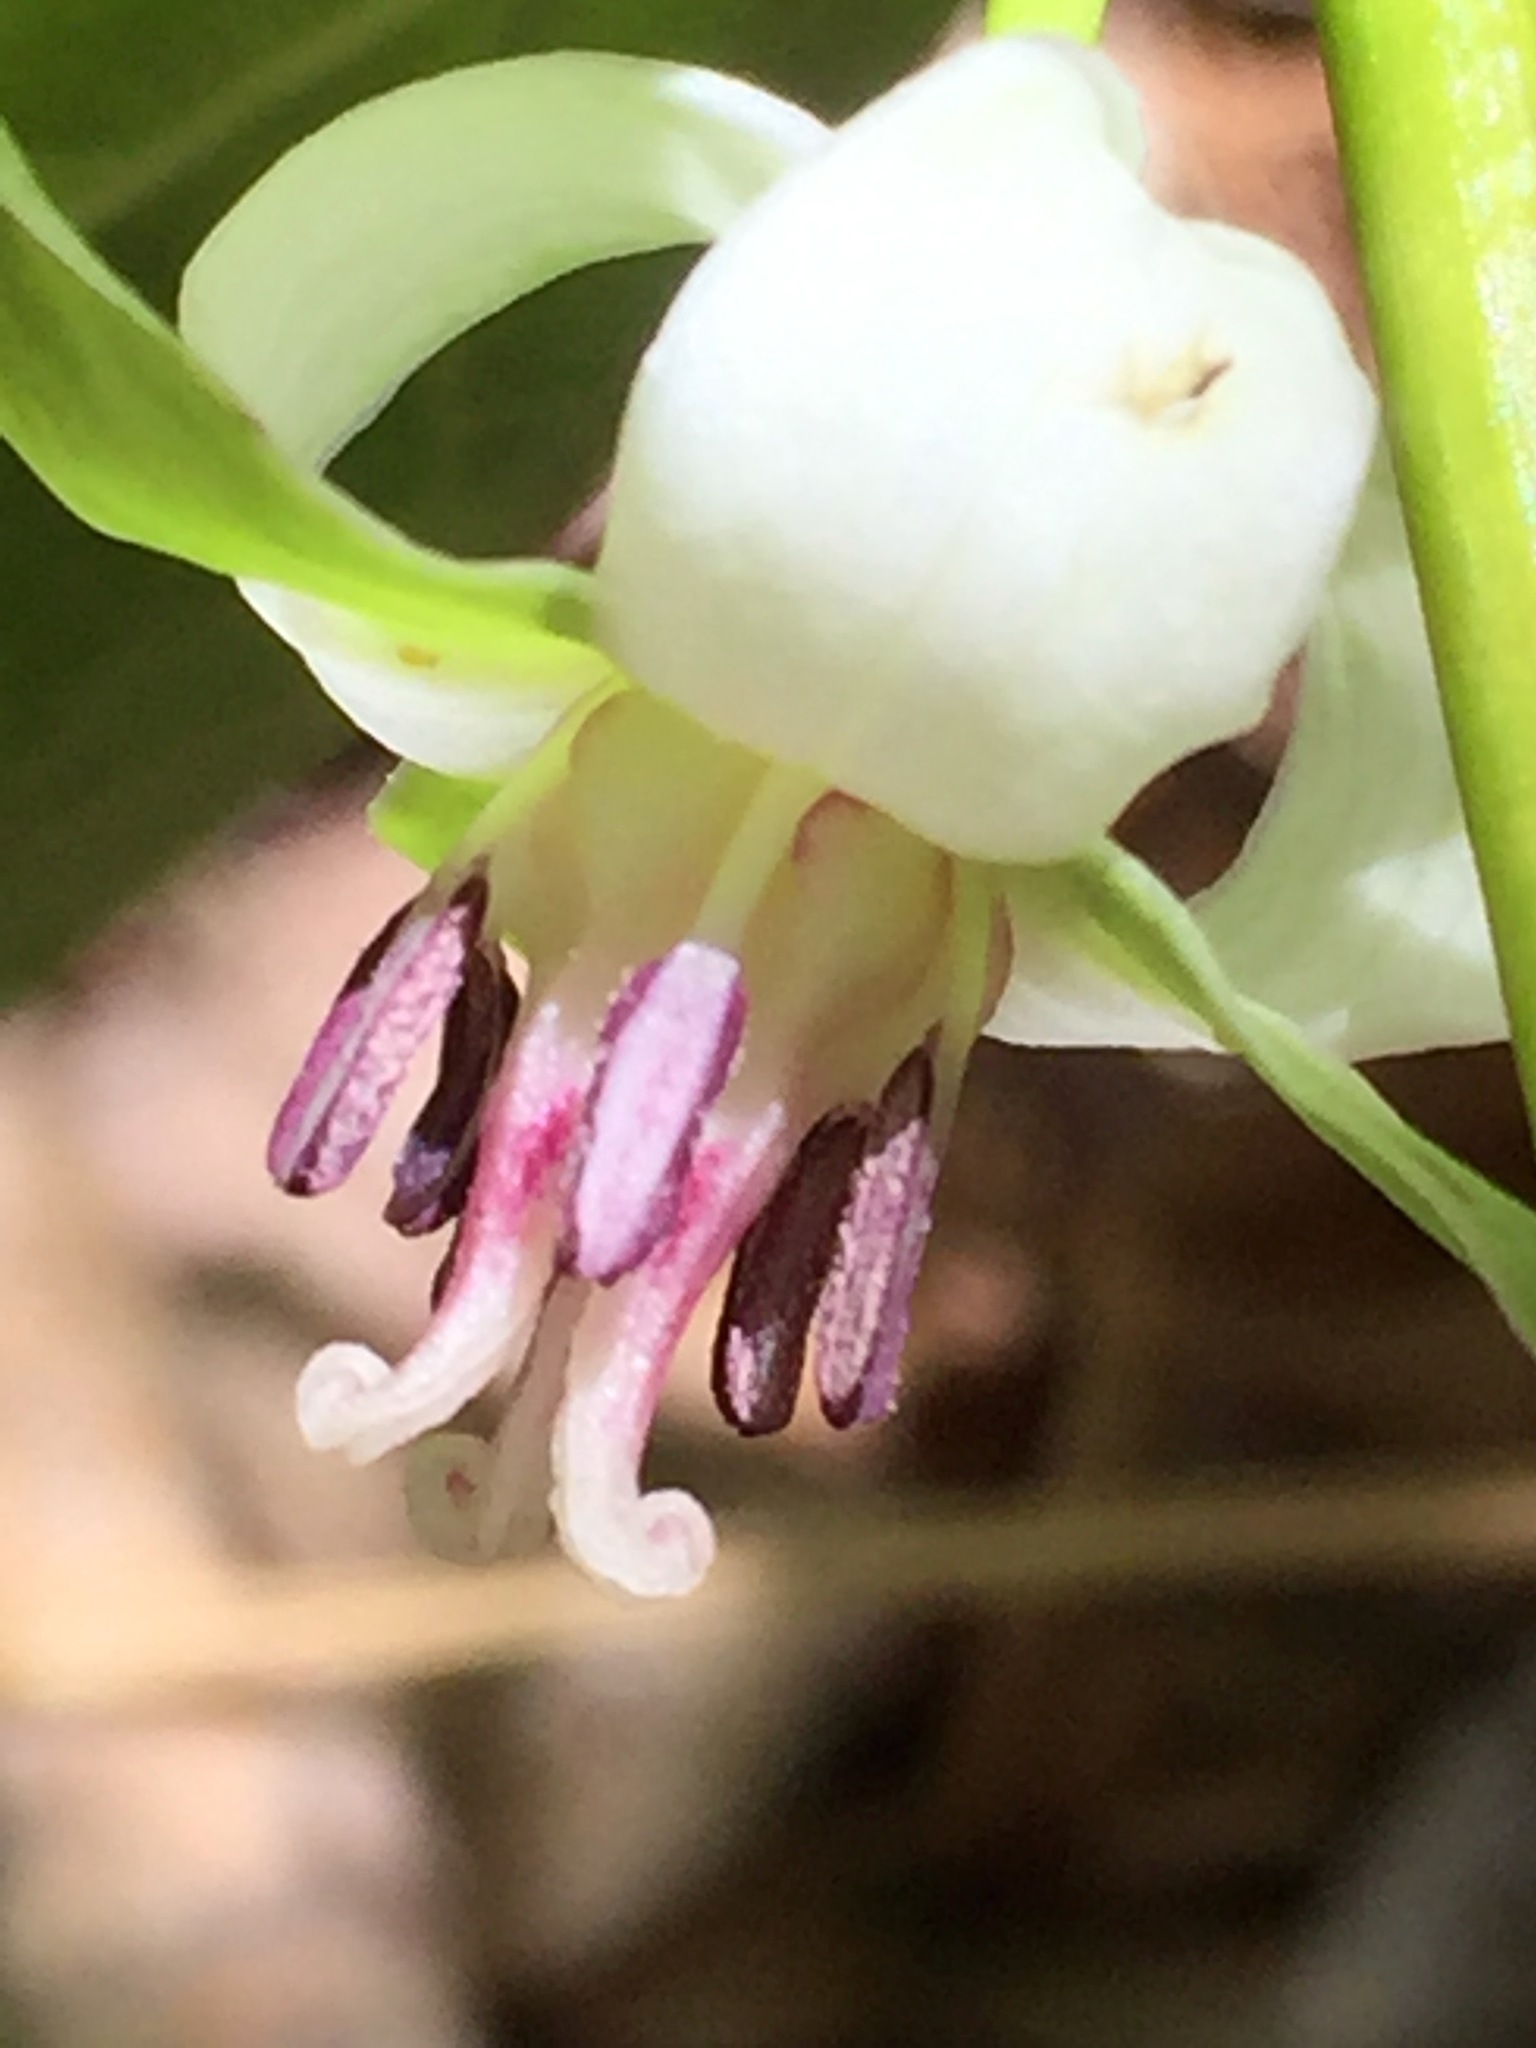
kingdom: Plantae
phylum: Tracheophyta
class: Liliopsida
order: Liliales
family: Melanthiaceae
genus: Trillium
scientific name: Trillium cernuum
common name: Nodding trillium
